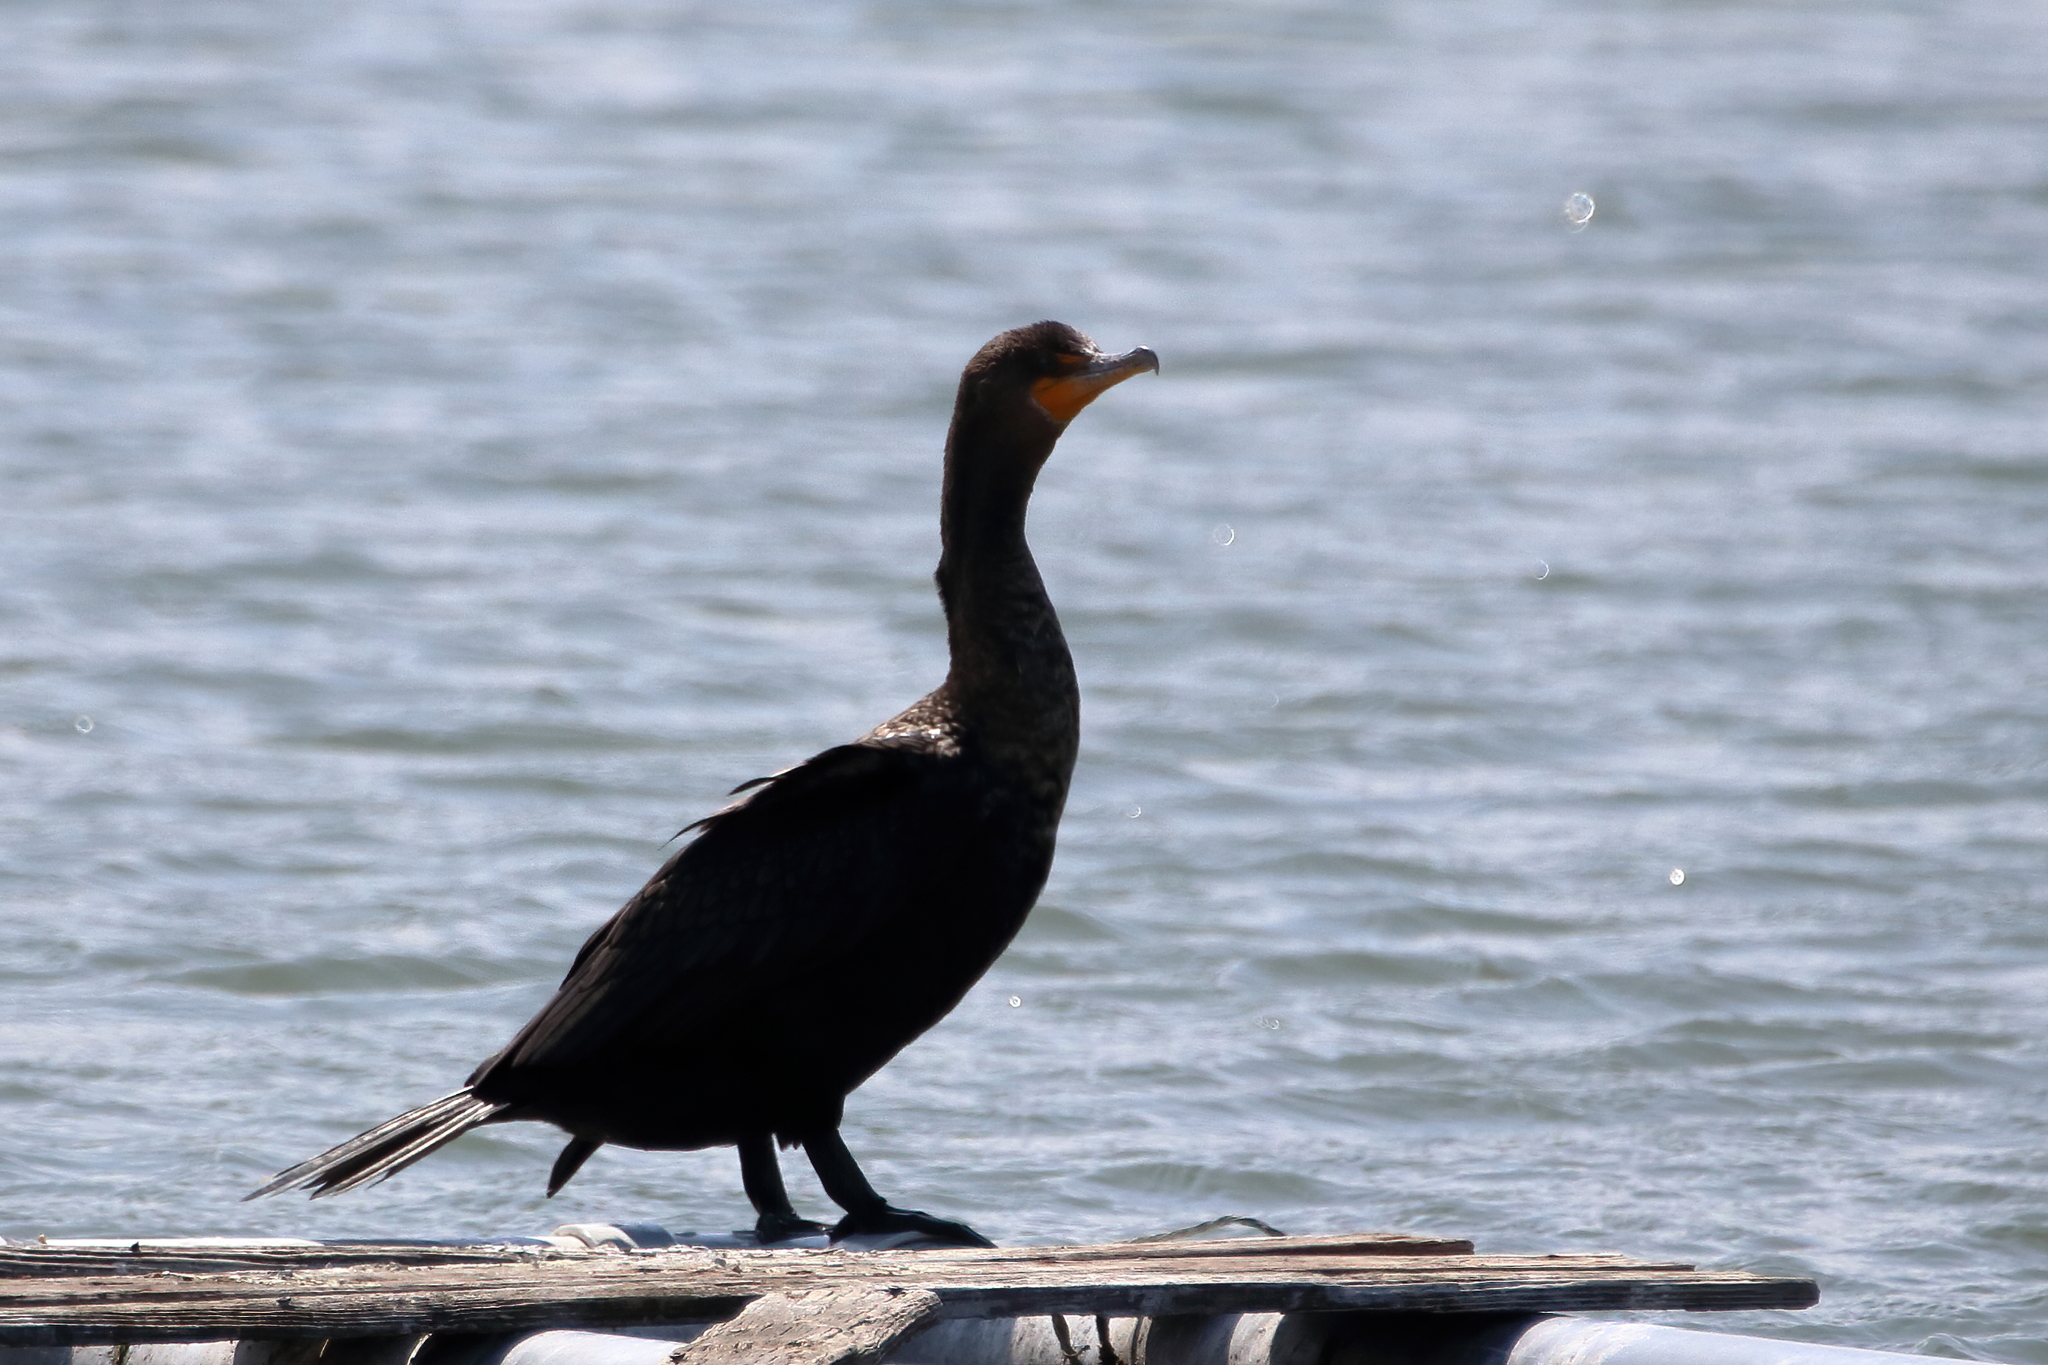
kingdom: Animalia
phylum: Chordata
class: Aves
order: Suliformes
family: Phalacrocoracidae
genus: Phalacrocorax
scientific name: Phalacrocorax auritus
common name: Double-crested cormorant
